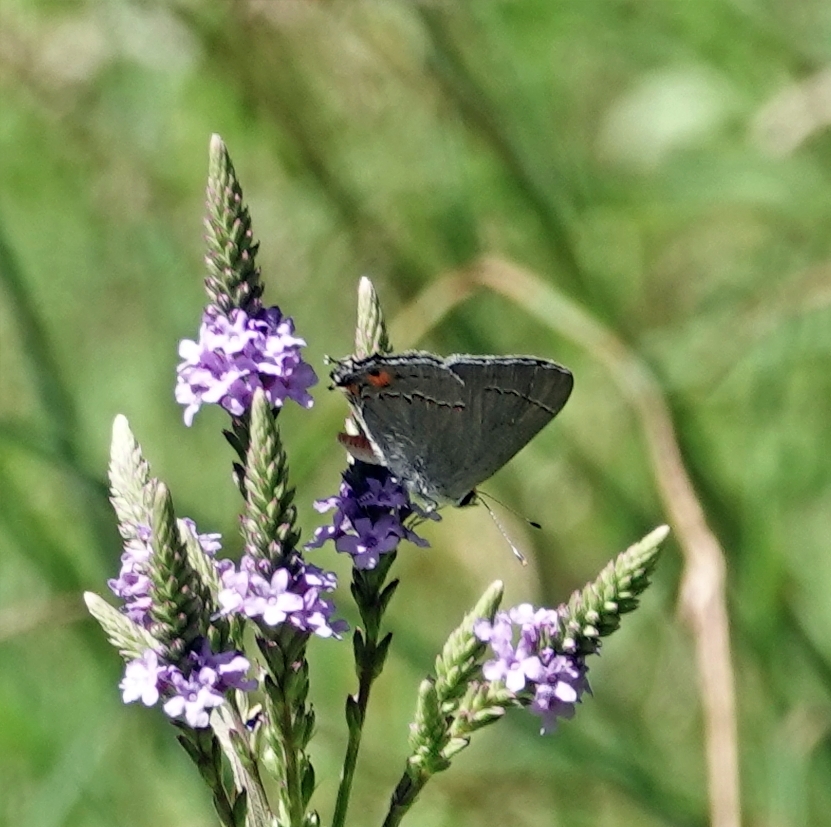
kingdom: Animalia
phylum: Arthropoda
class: Insecta
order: Lepidoptera
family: Lycaenidae
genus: Strymon
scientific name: Strymon melinus
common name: Gray hairstreak
